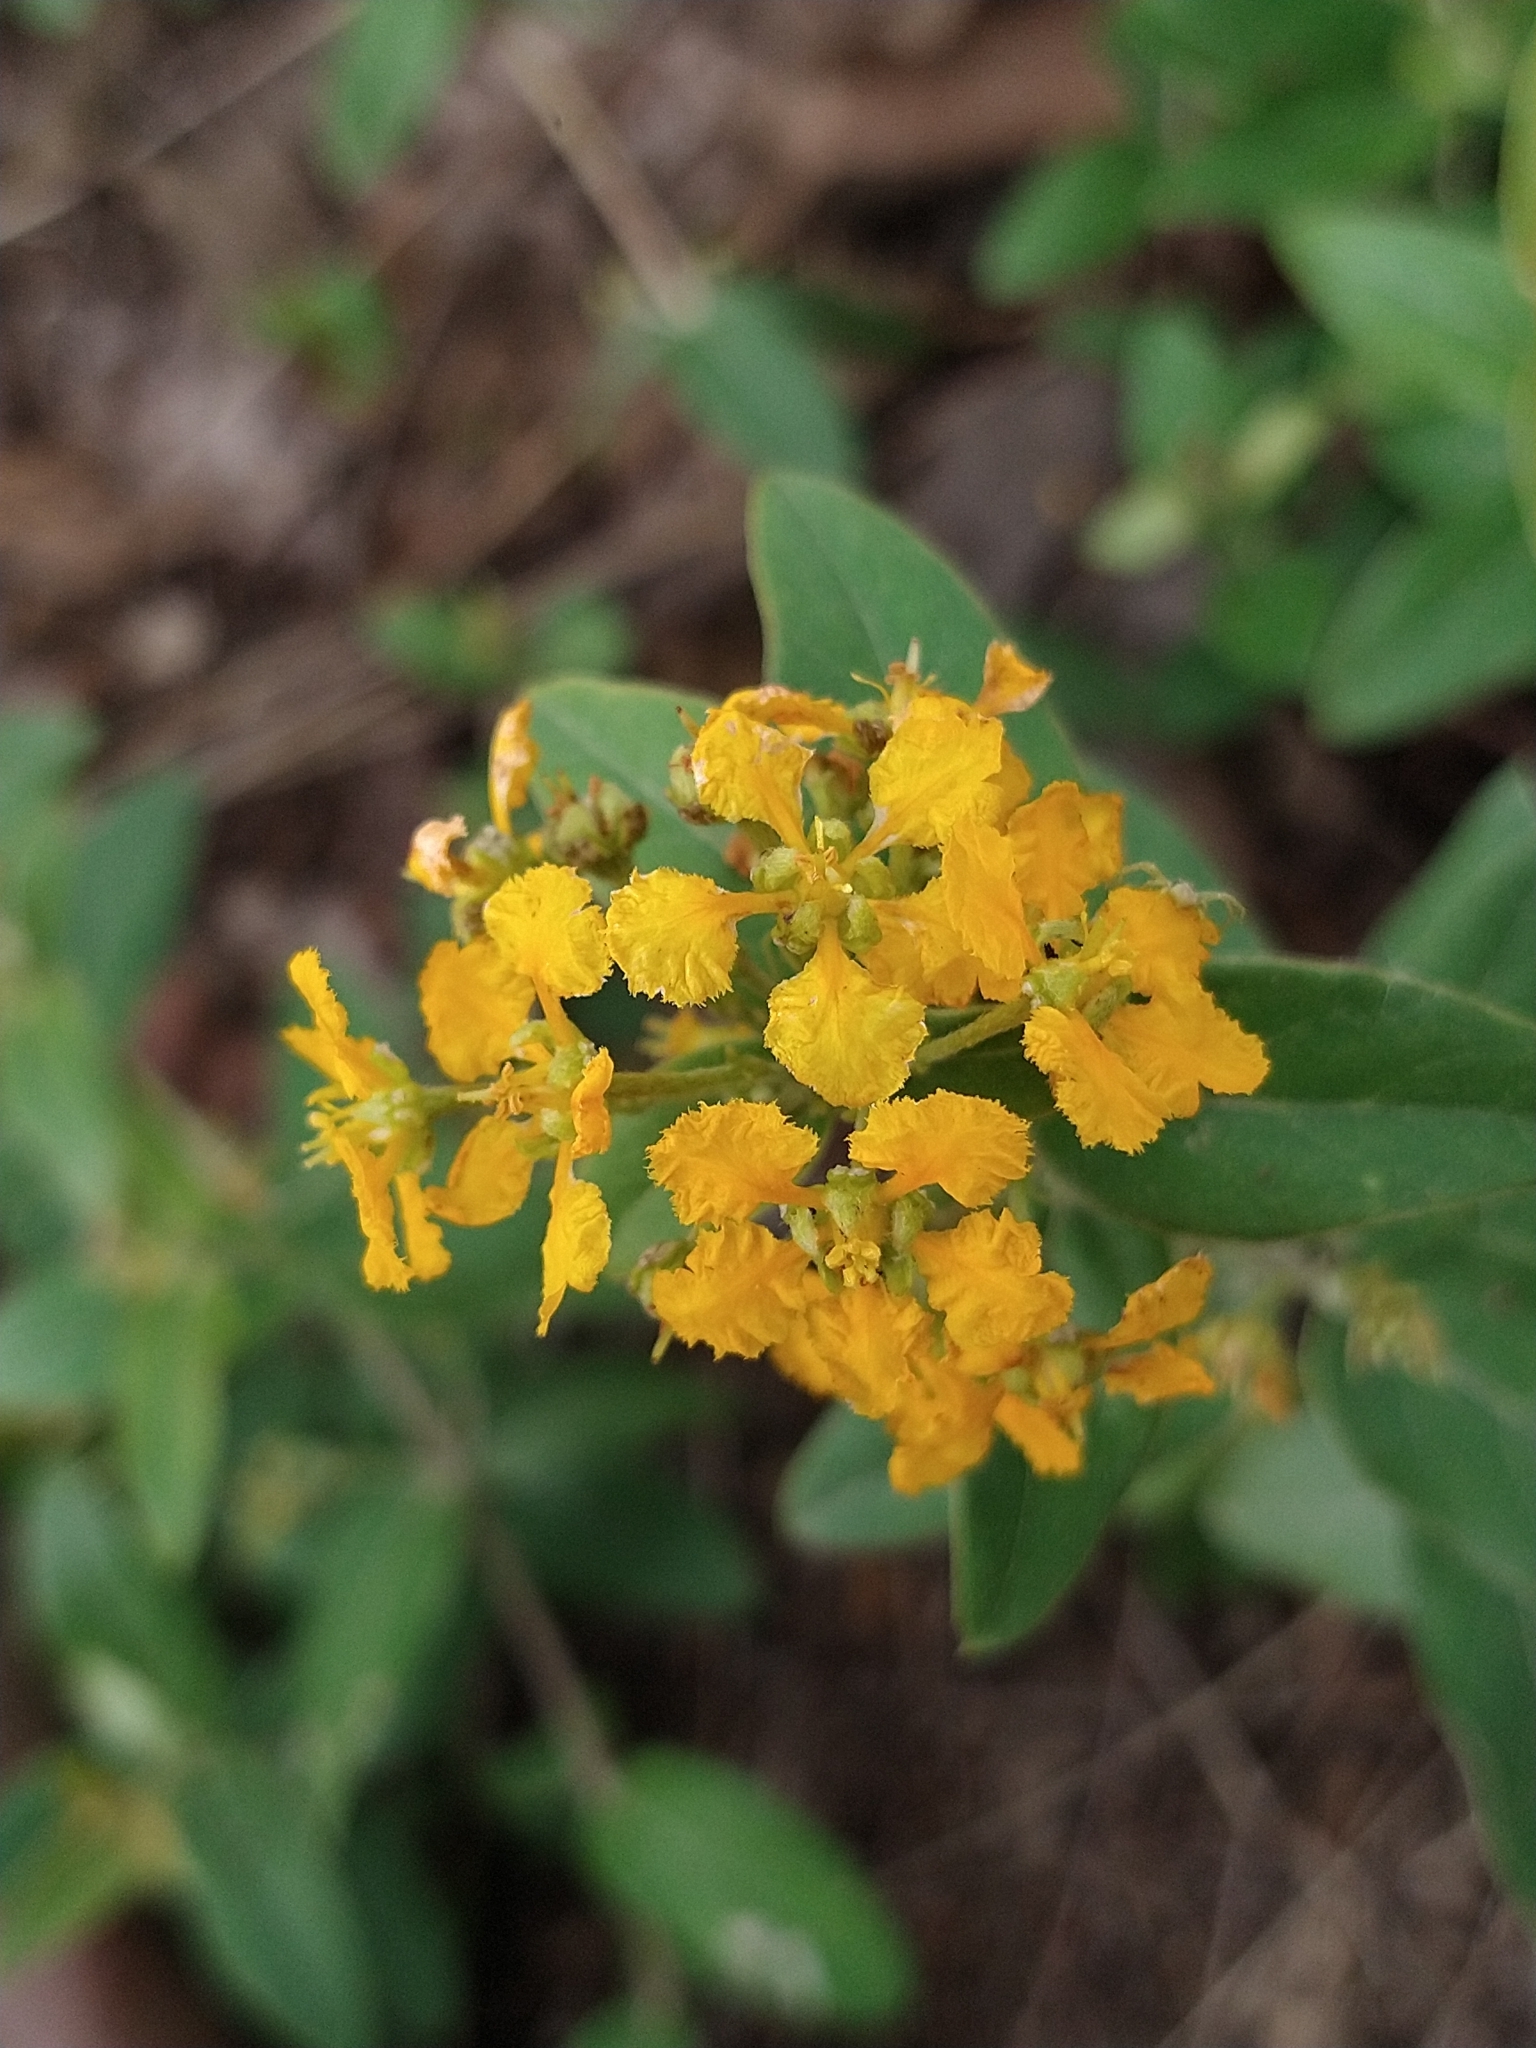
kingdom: Plantae
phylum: Tracheophyta
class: Magnoliopsida
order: Malpighiales
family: Malpighiaceae
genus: Aspicarpa
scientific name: Aspicarpa brevipes
